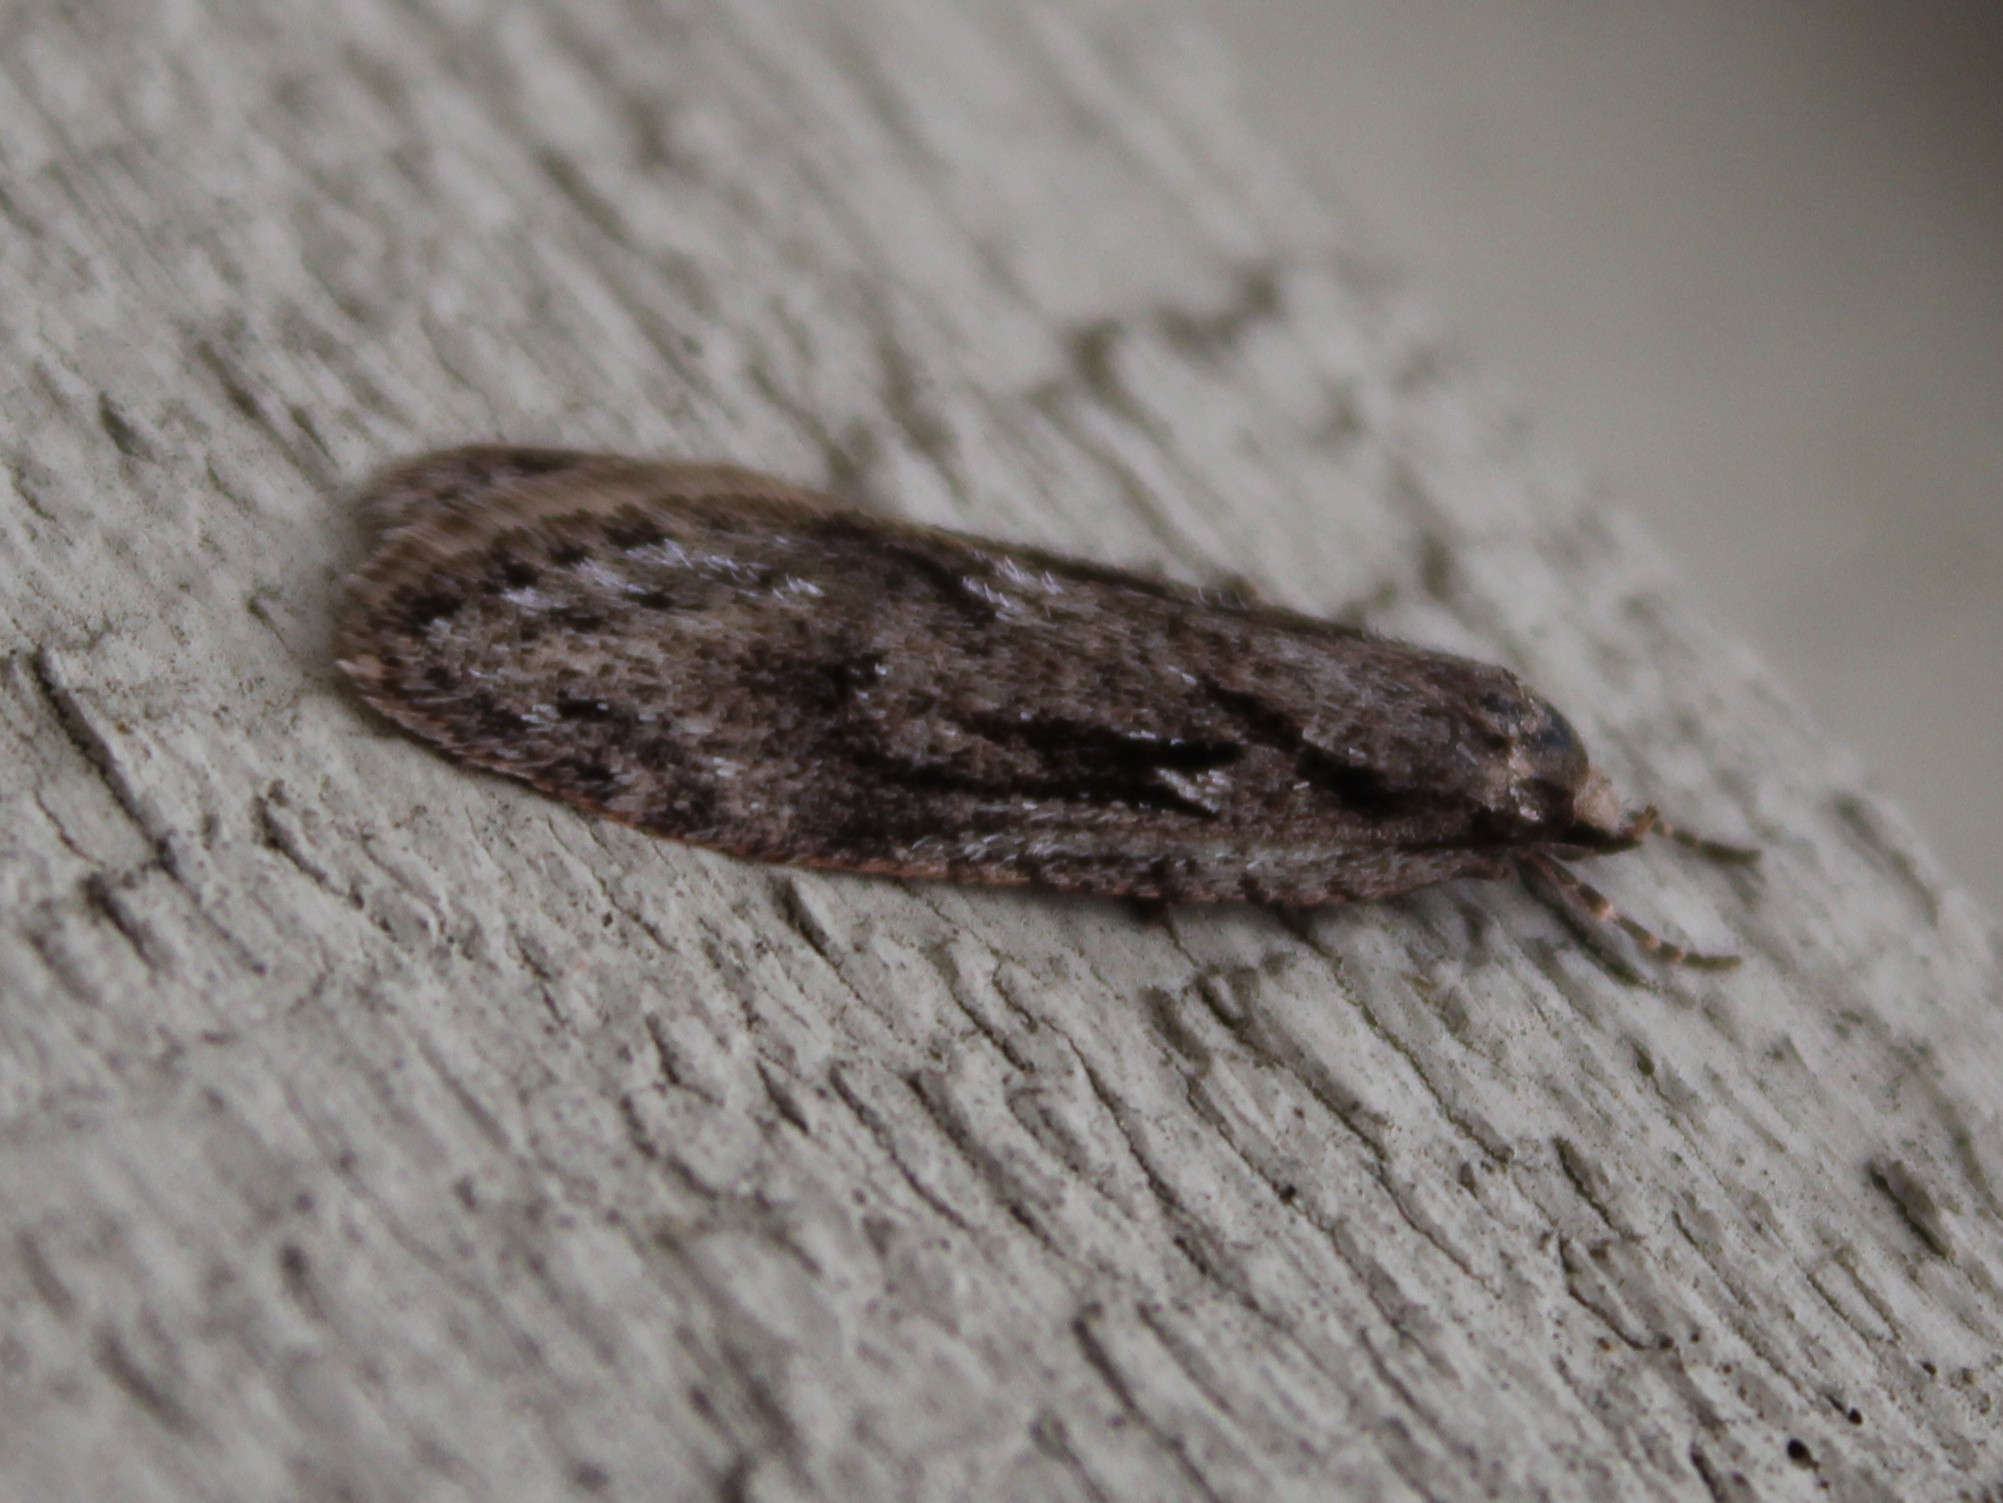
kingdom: Animalia
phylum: Arthropoda
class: Insecta
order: Lepidoptera
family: Depressariidae
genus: Semioscopis
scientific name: Semioscopis aurorella
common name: Aurora flatbody moth
